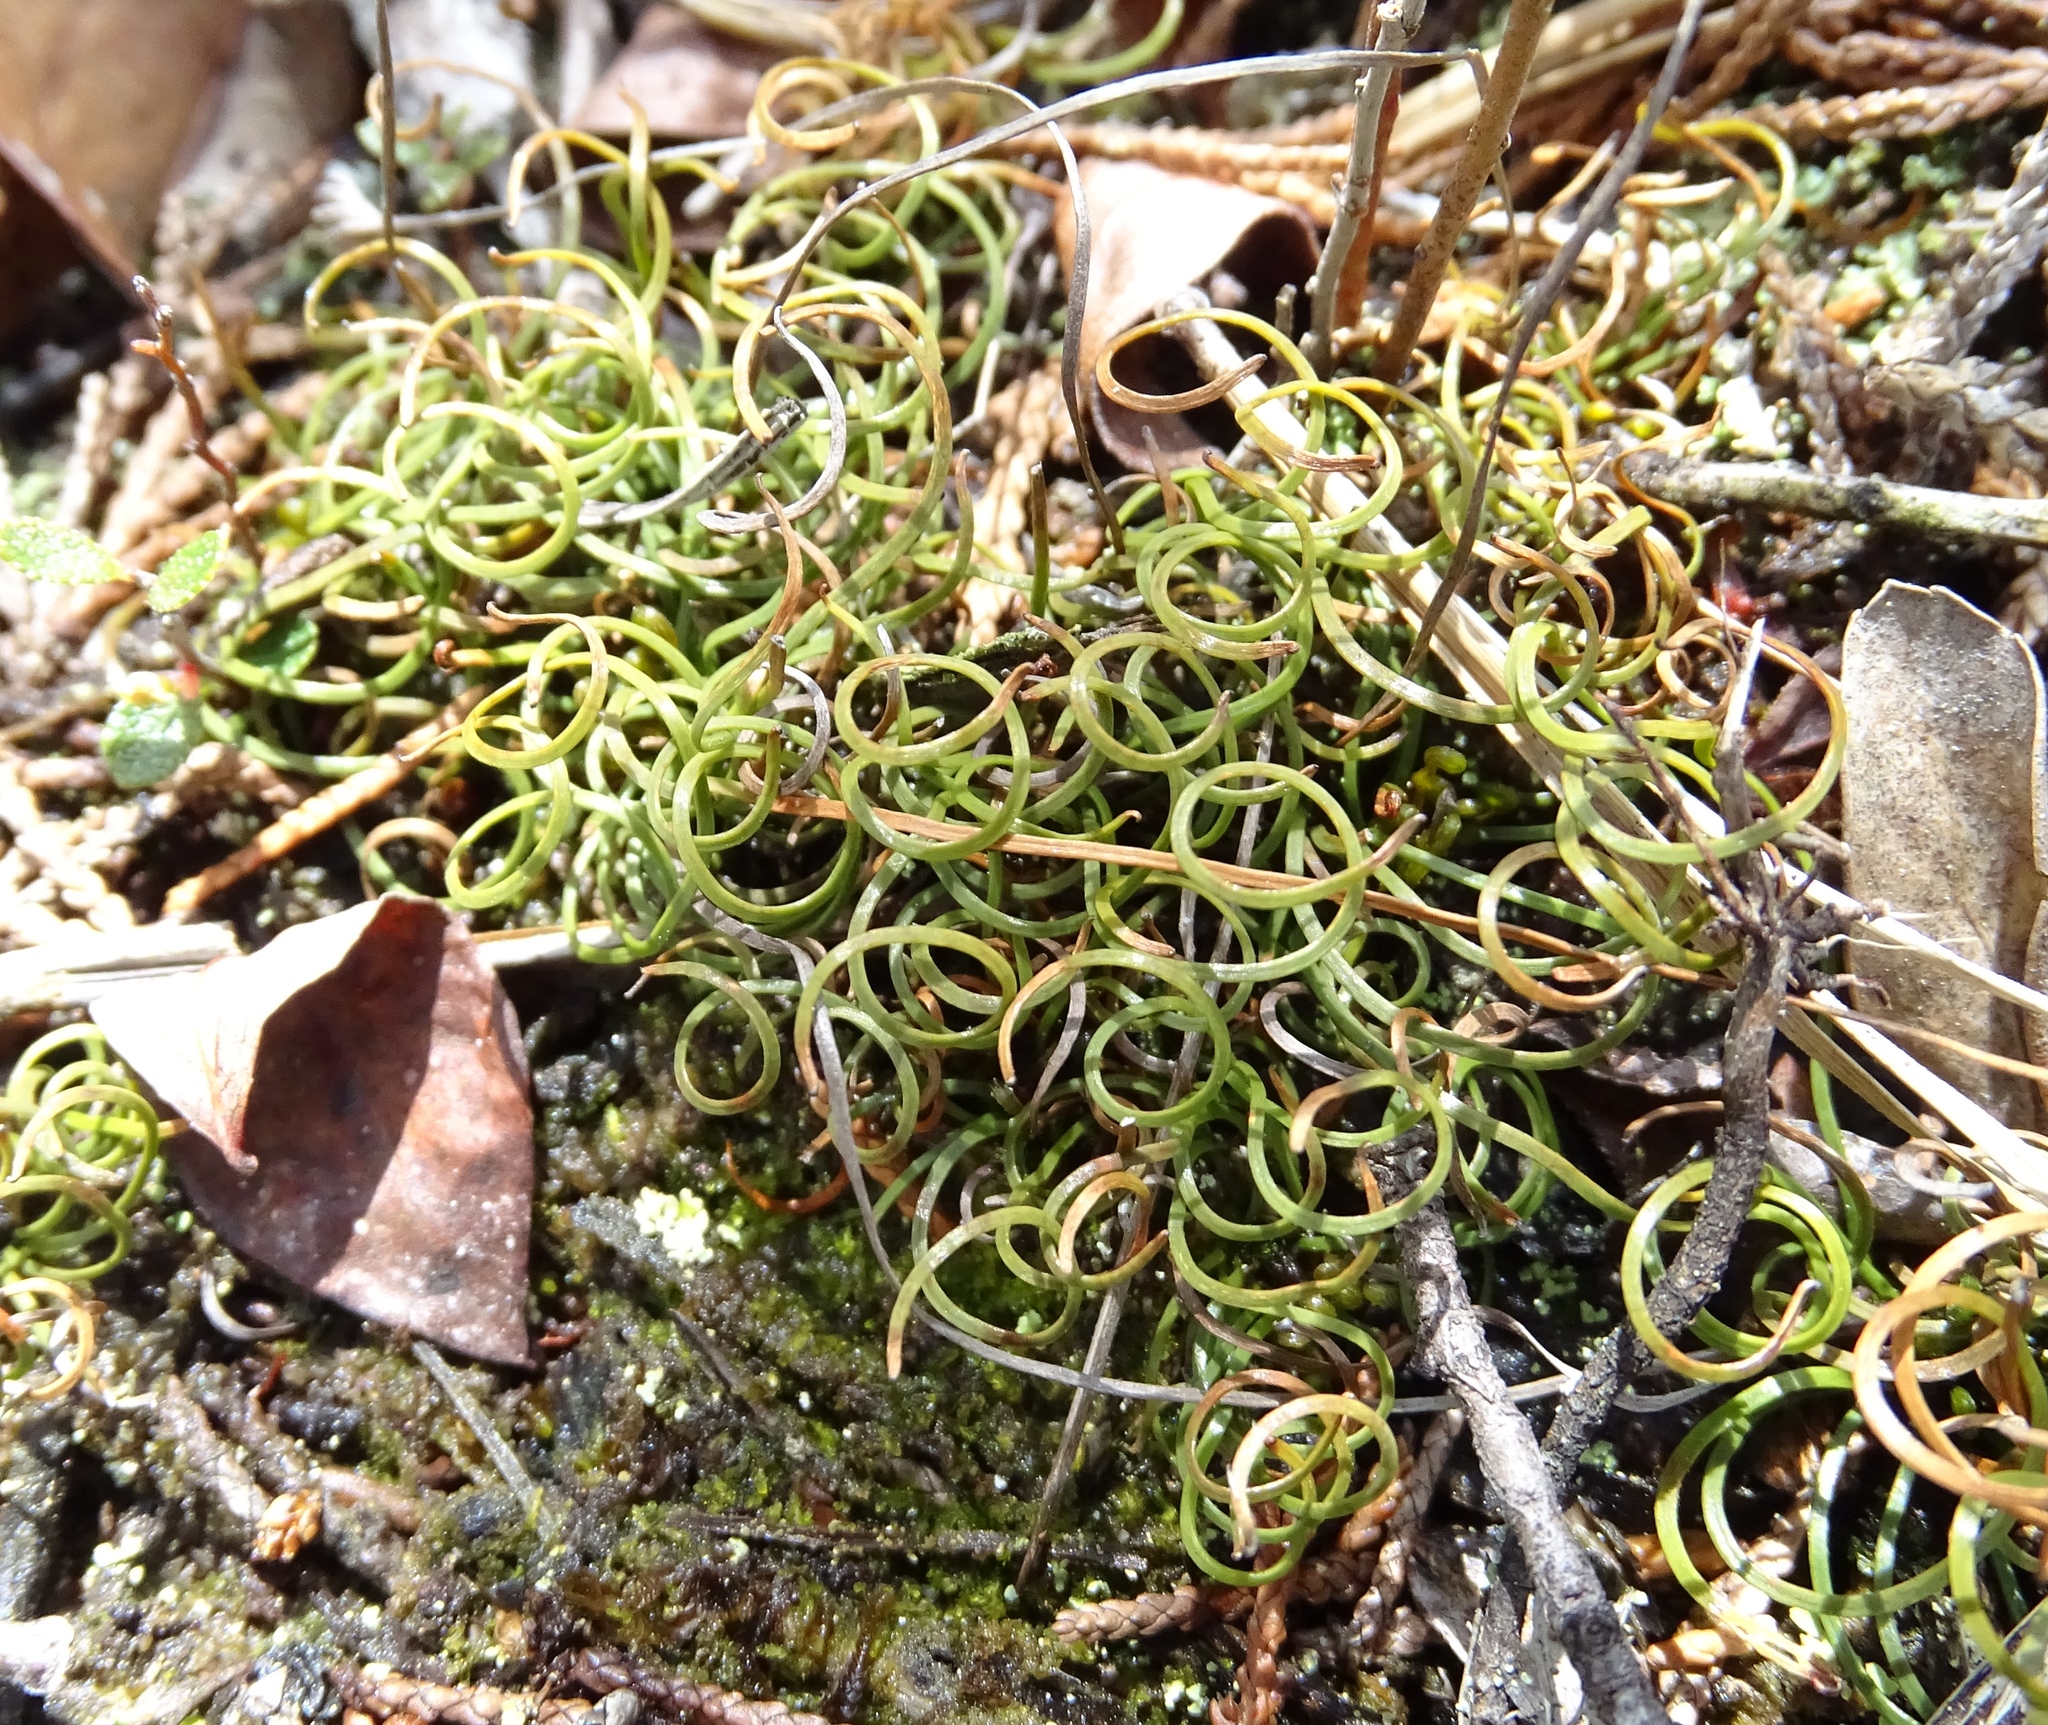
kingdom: Plantae
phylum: Tracheophyta
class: Polypodiopsida
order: Schizaeales
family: Schizaeaceae
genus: Schizaea
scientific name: Schizaea pusilla
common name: Curly-grass fern
